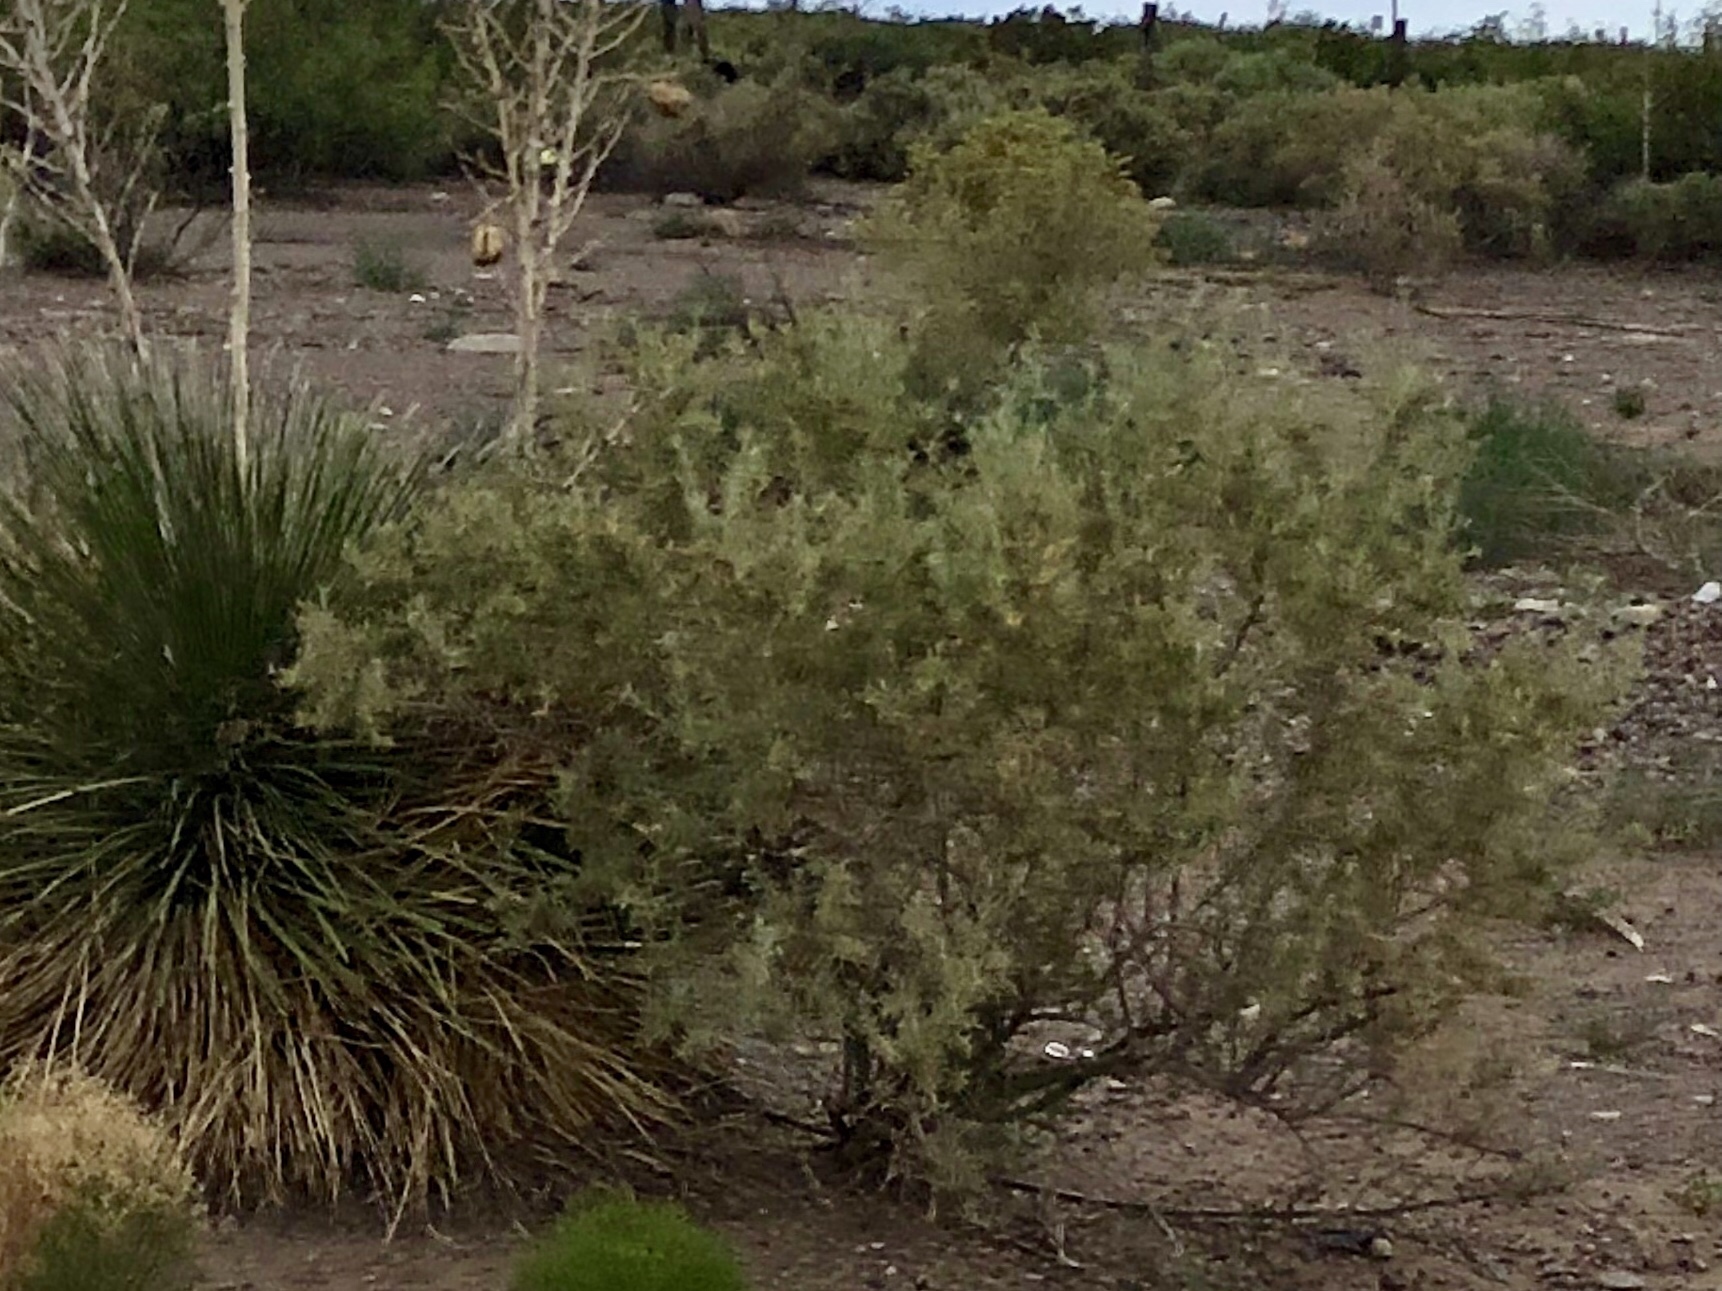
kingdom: Plantae
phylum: Tracheophyta
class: Magnoliopsida
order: Caryophyllales
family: Amaranthaceae
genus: Atriplex
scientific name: Atriplex canescens
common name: Four-wing saltbush
